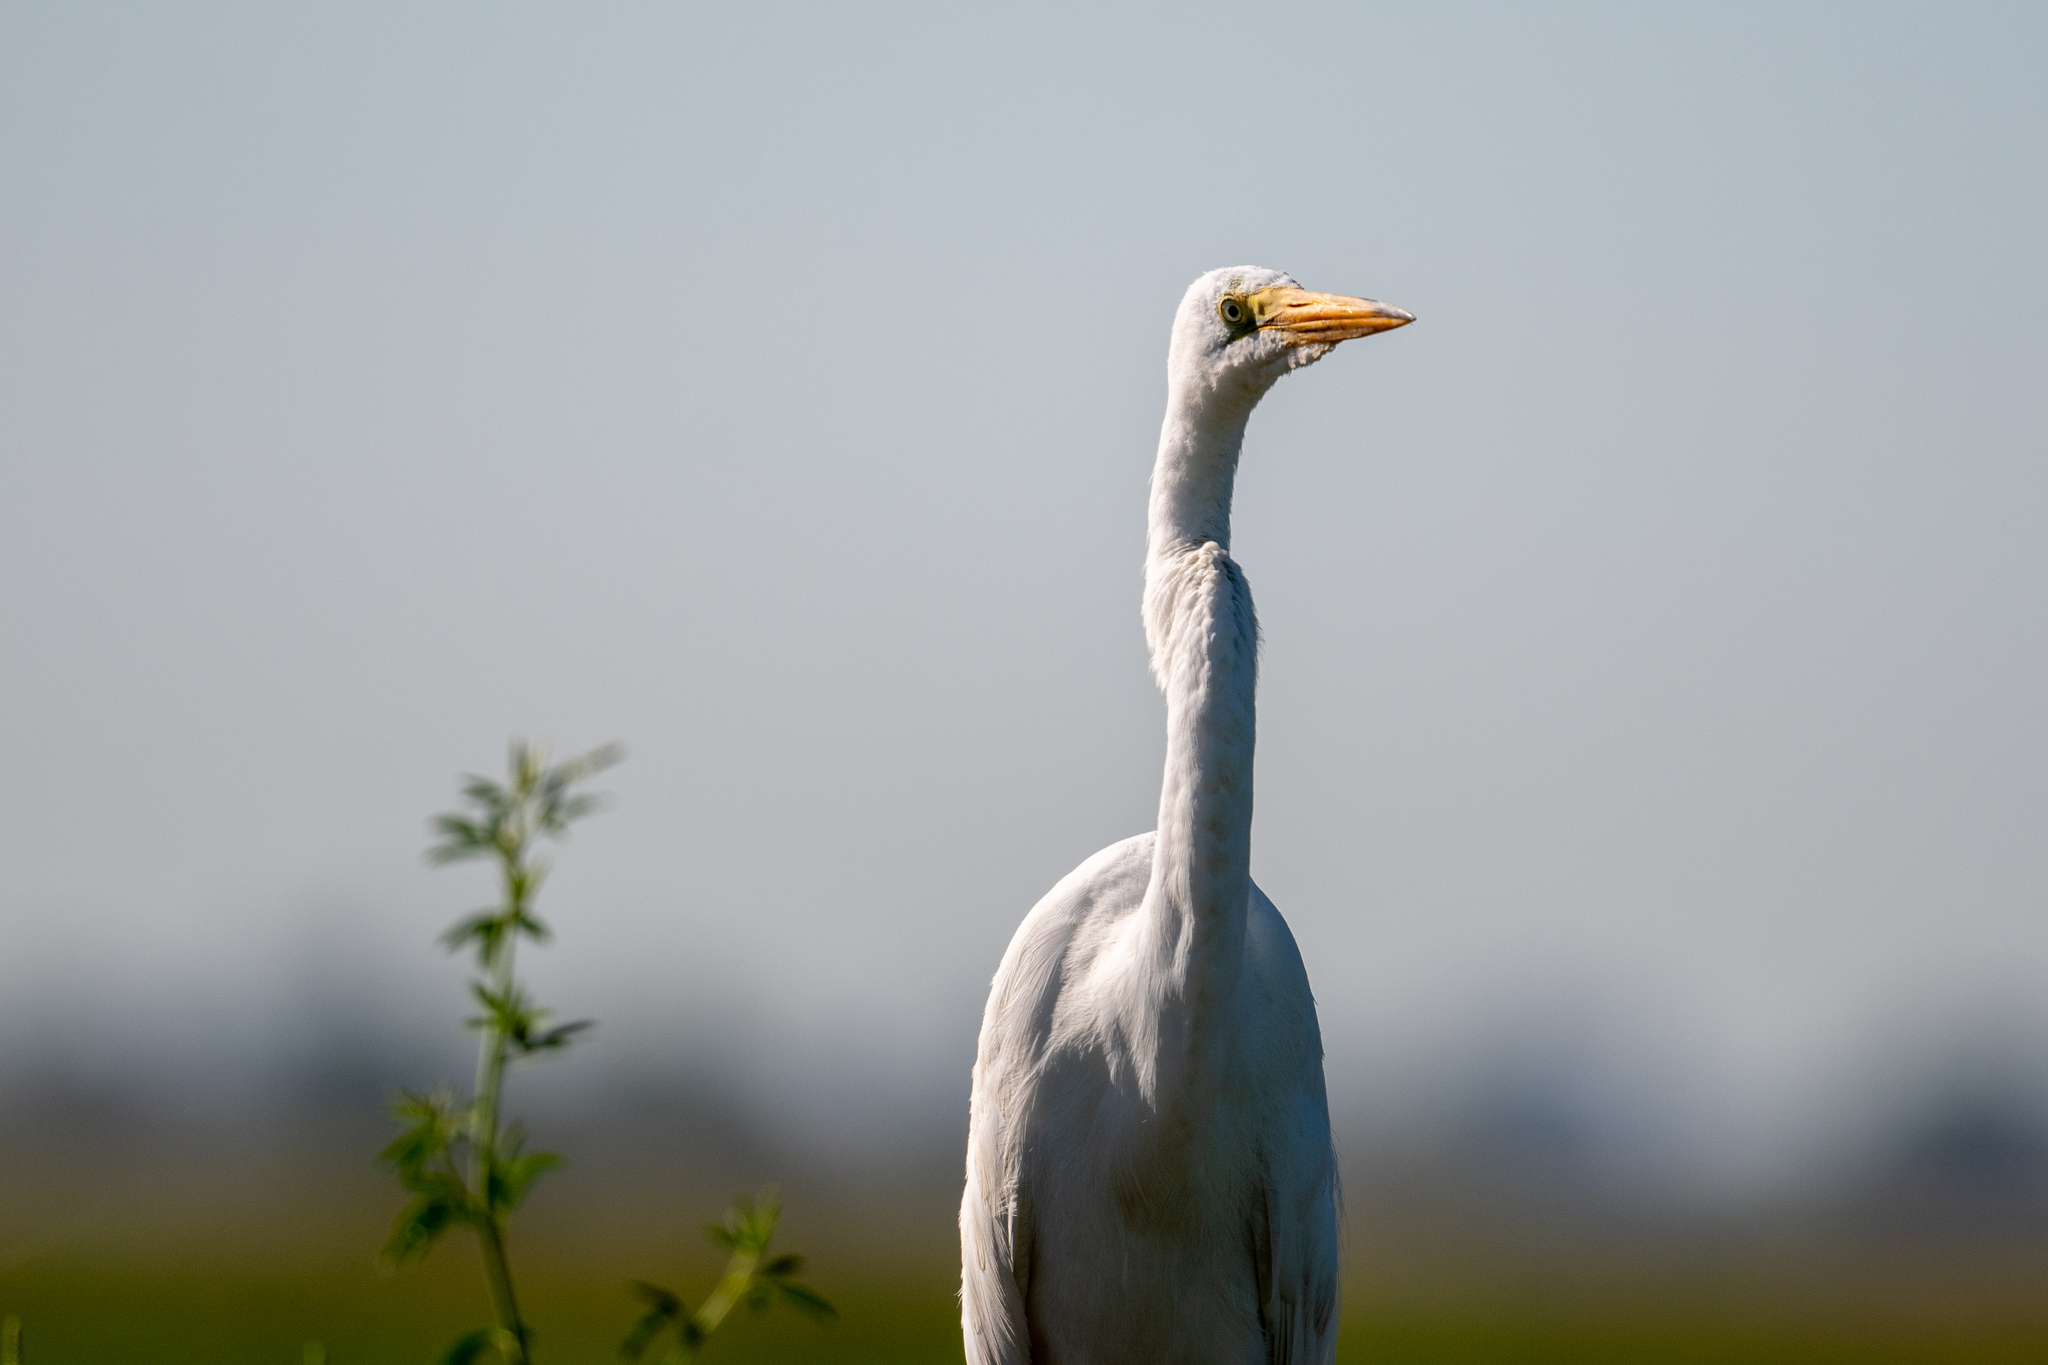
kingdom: Animalia
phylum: Chordata
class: Aves
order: Pelecaniformes
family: Ardeidae
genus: Ardea
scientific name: Ardea alba
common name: Great egret
